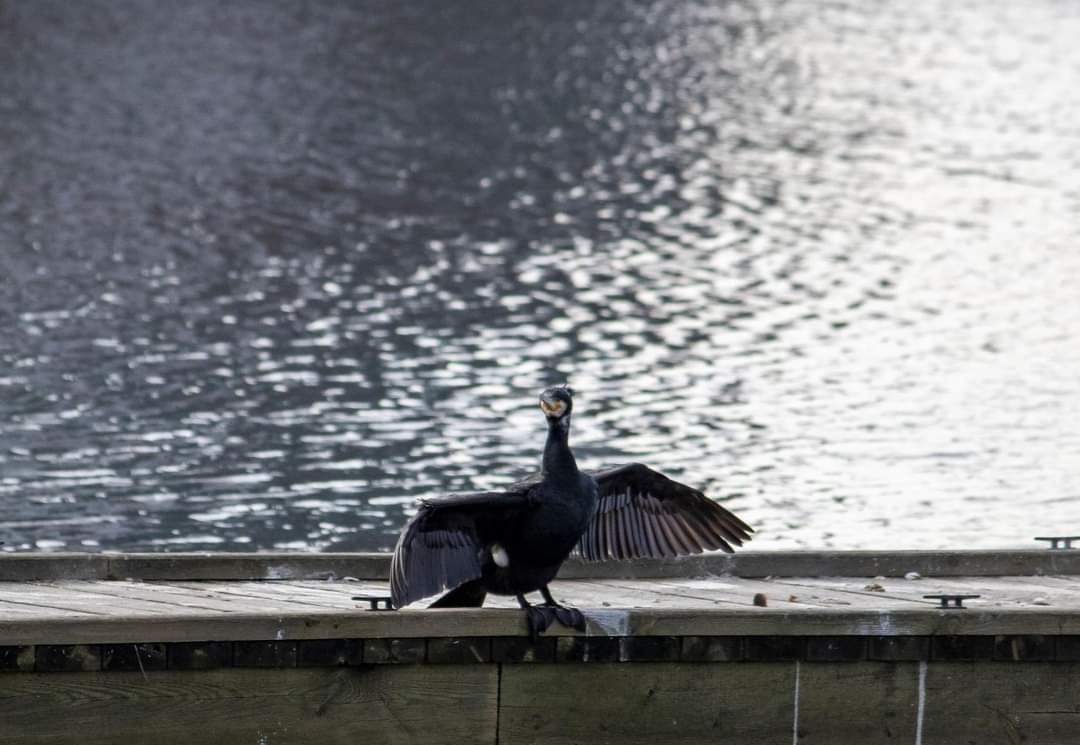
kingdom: Animalia
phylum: Chordata
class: Aves
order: Suliformes
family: Phalacrocoracidae
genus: Phalacrocorax
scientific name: Phalacrocorax carbo
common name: Great cormorant
